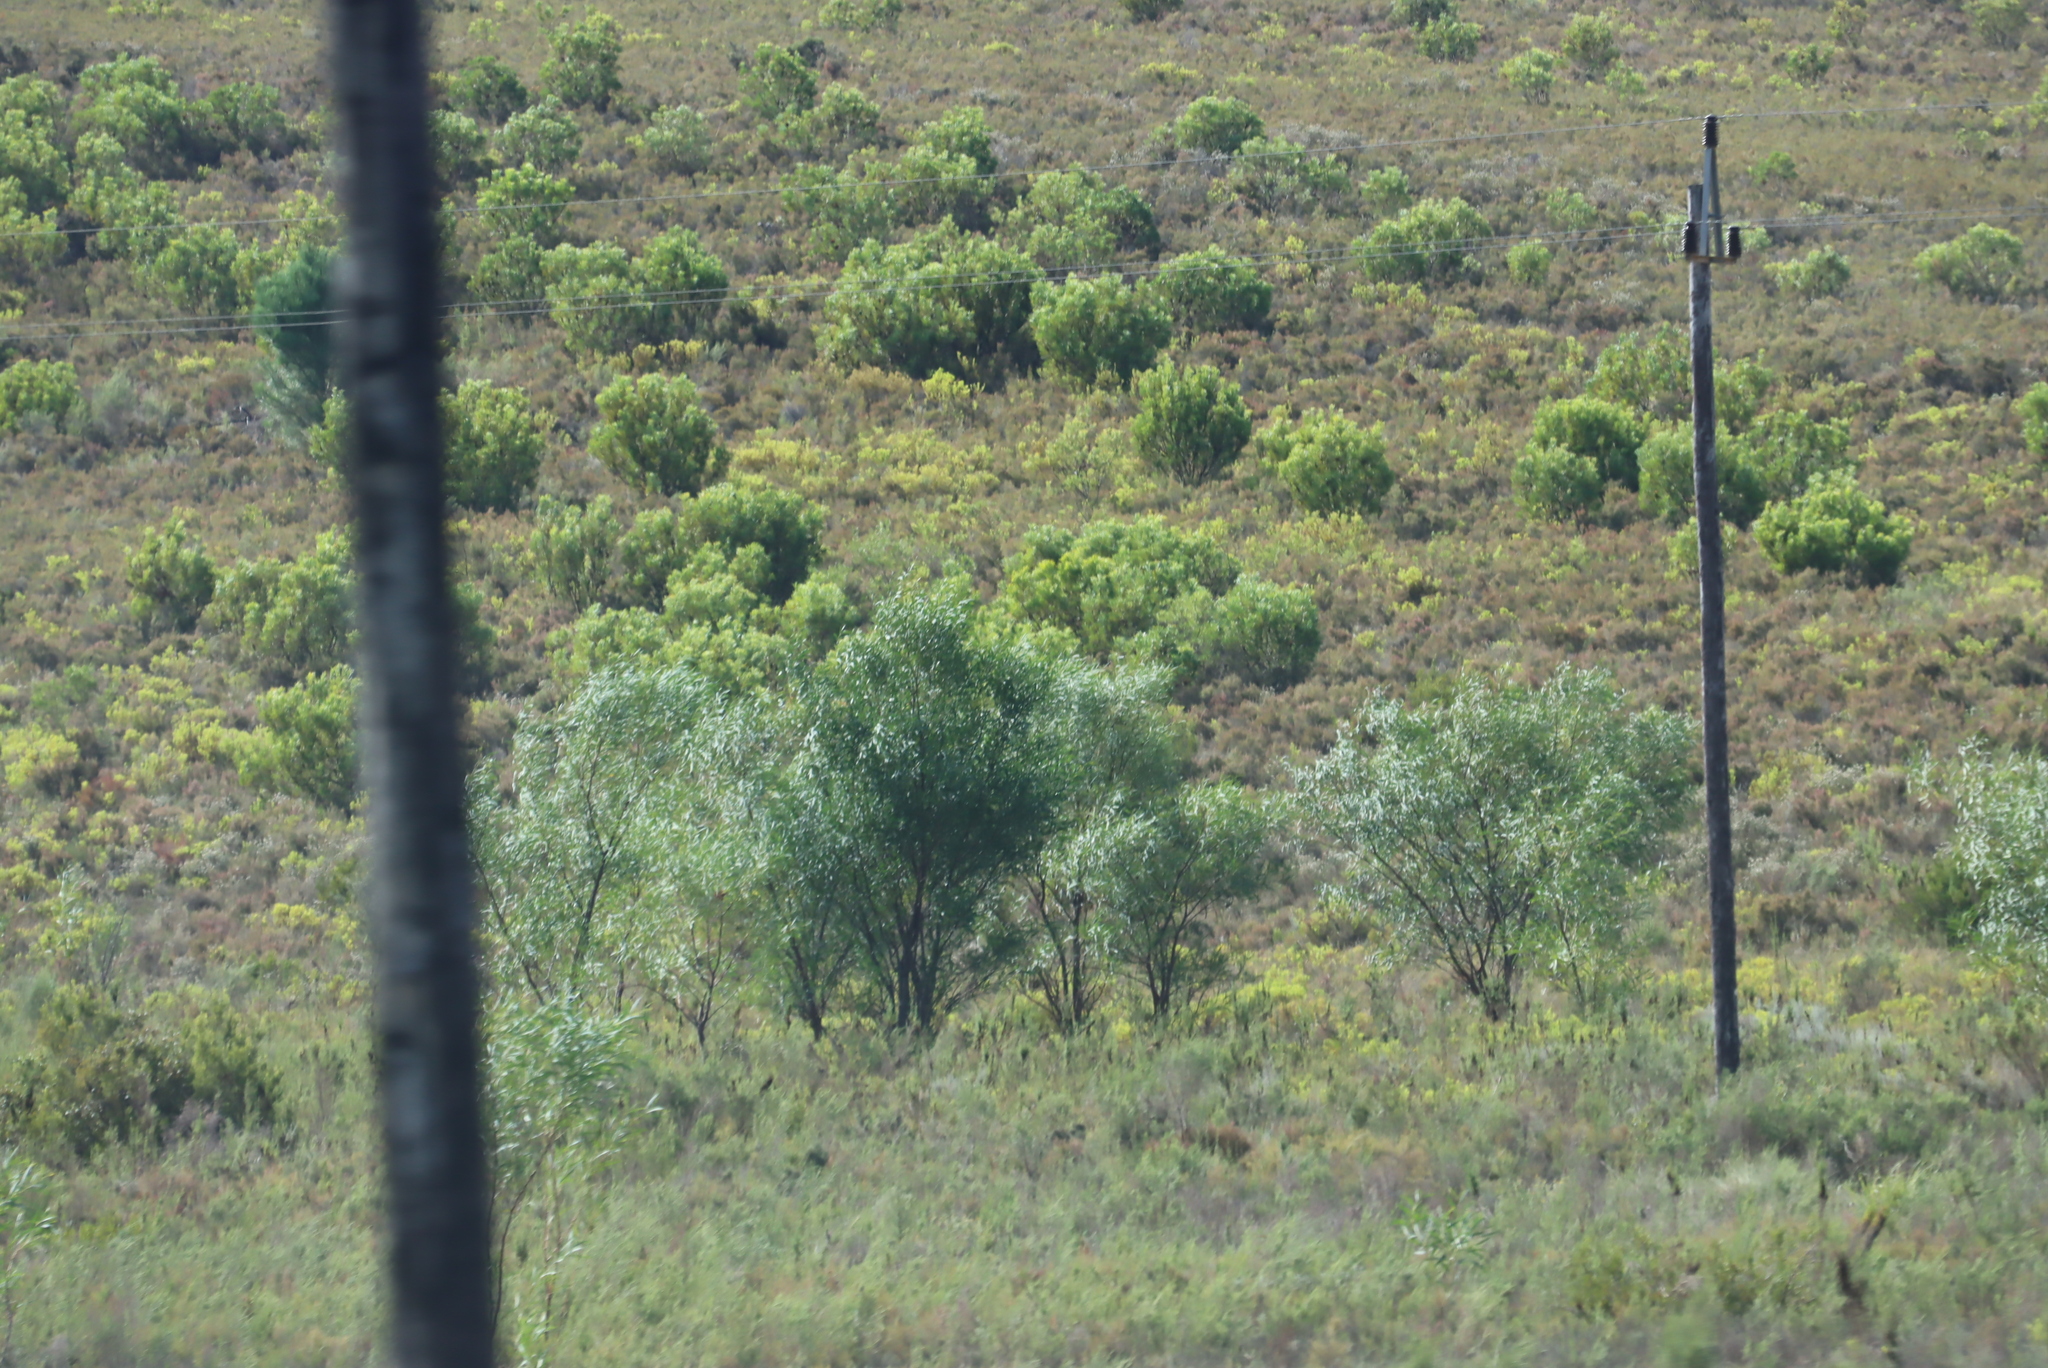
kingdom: Plantae
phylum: Tracheophyta
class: Magnoliopsida
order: Fabales
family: Fabaceae
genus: Acacia
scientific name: Acacia saligna
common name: Orange wattle
